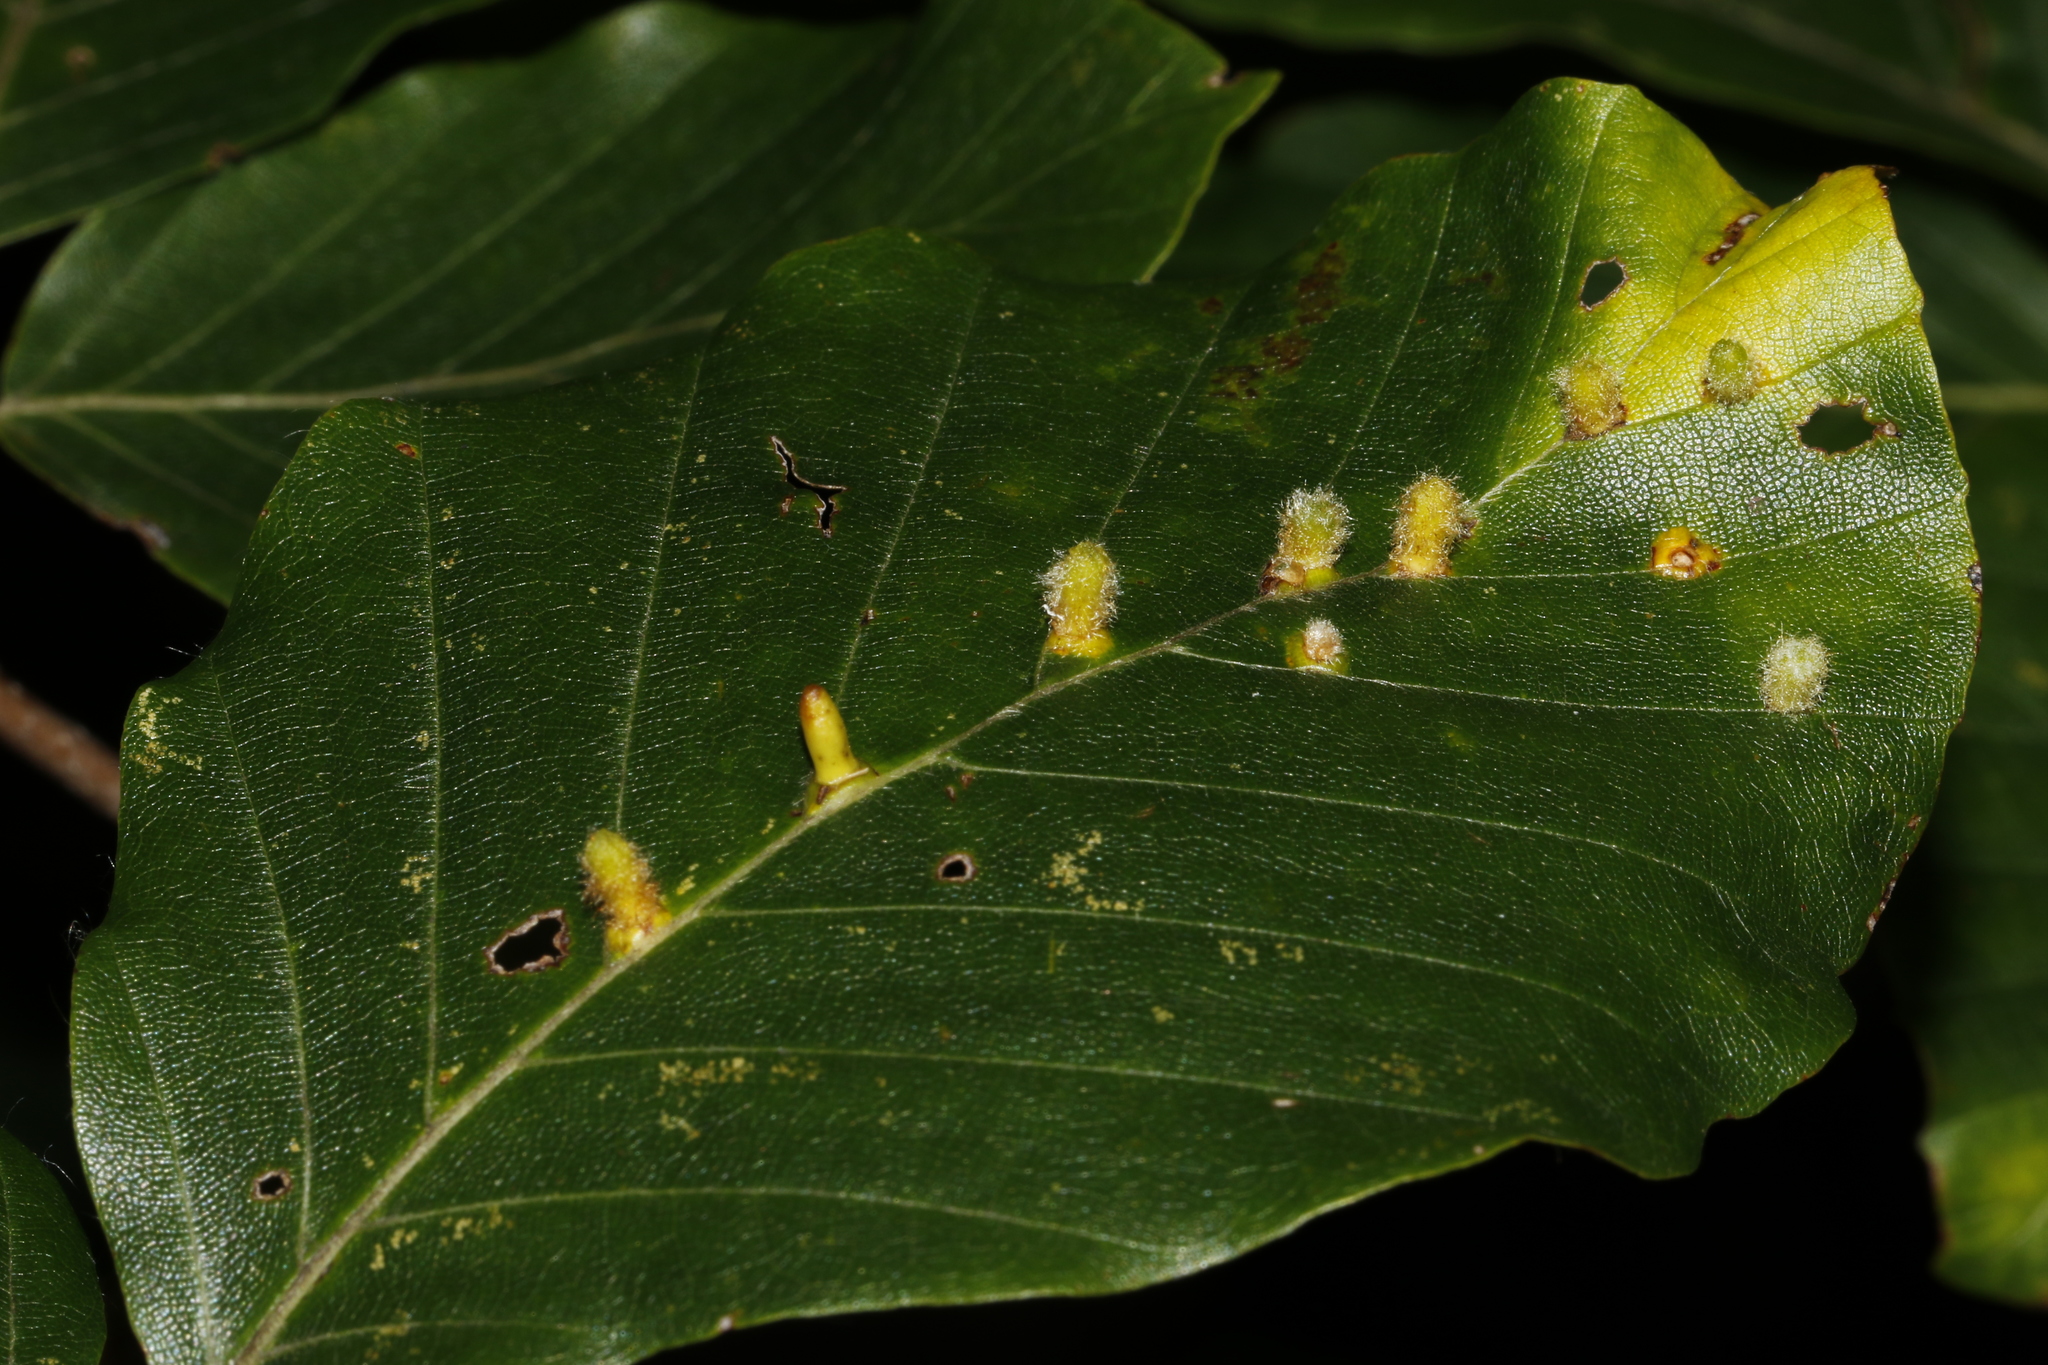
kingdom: Animalia
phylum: Arthropoda
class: Insecta
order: Diptera
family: Cecidomyiidae
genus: Hartigiola
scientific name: Hartigiola annulipes
